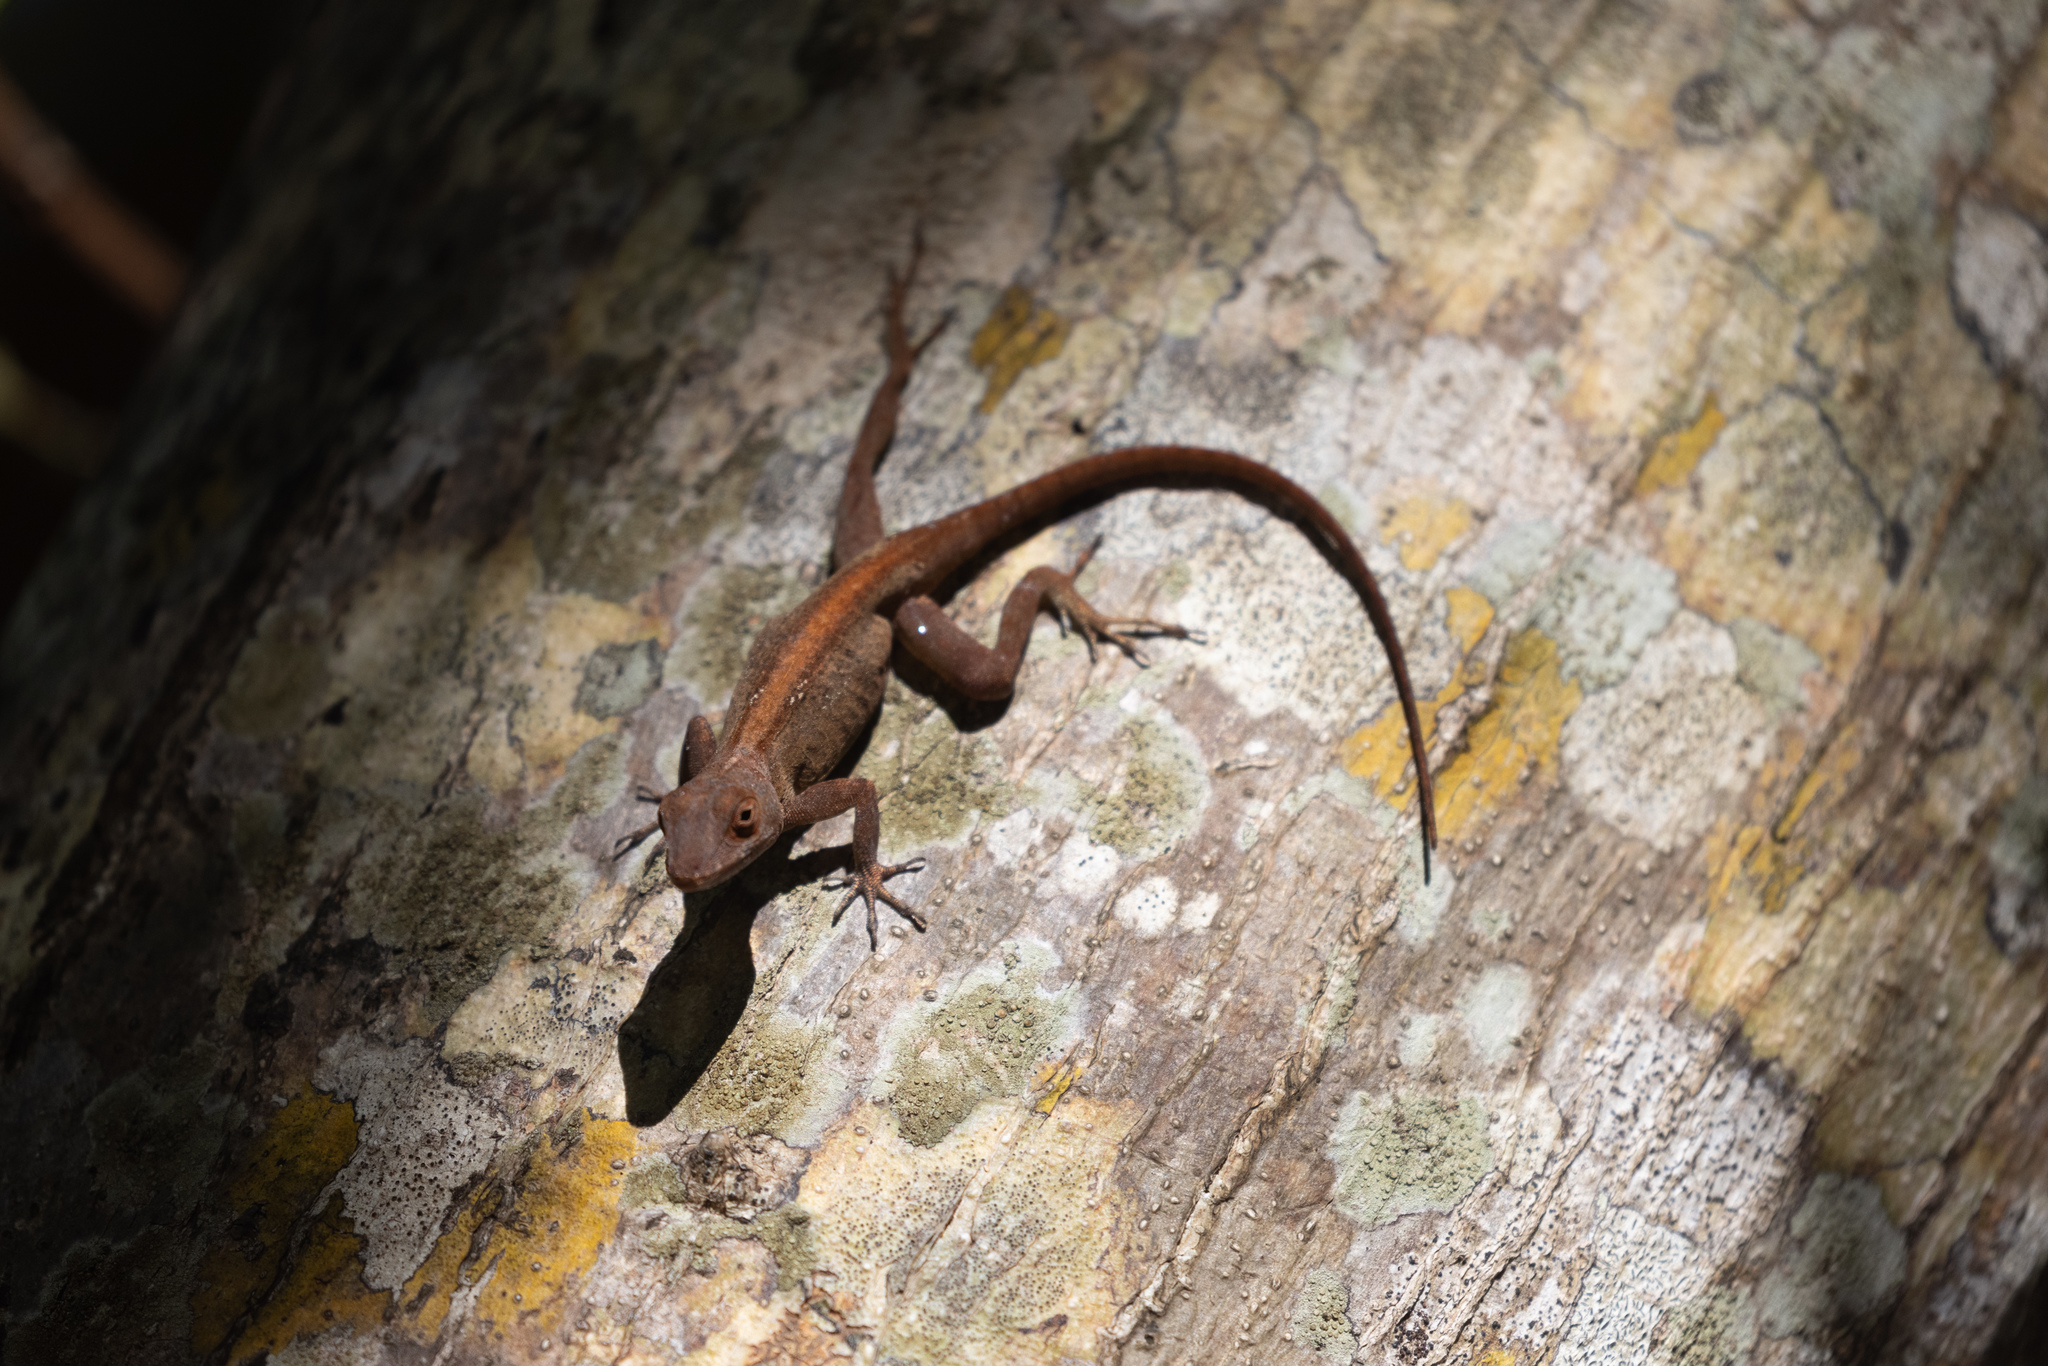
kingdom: Animalia
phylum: Chordata
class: Squamata
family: Dactyloidae
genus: Anolis
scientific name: Anolis cristatellus
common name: Crested anole
